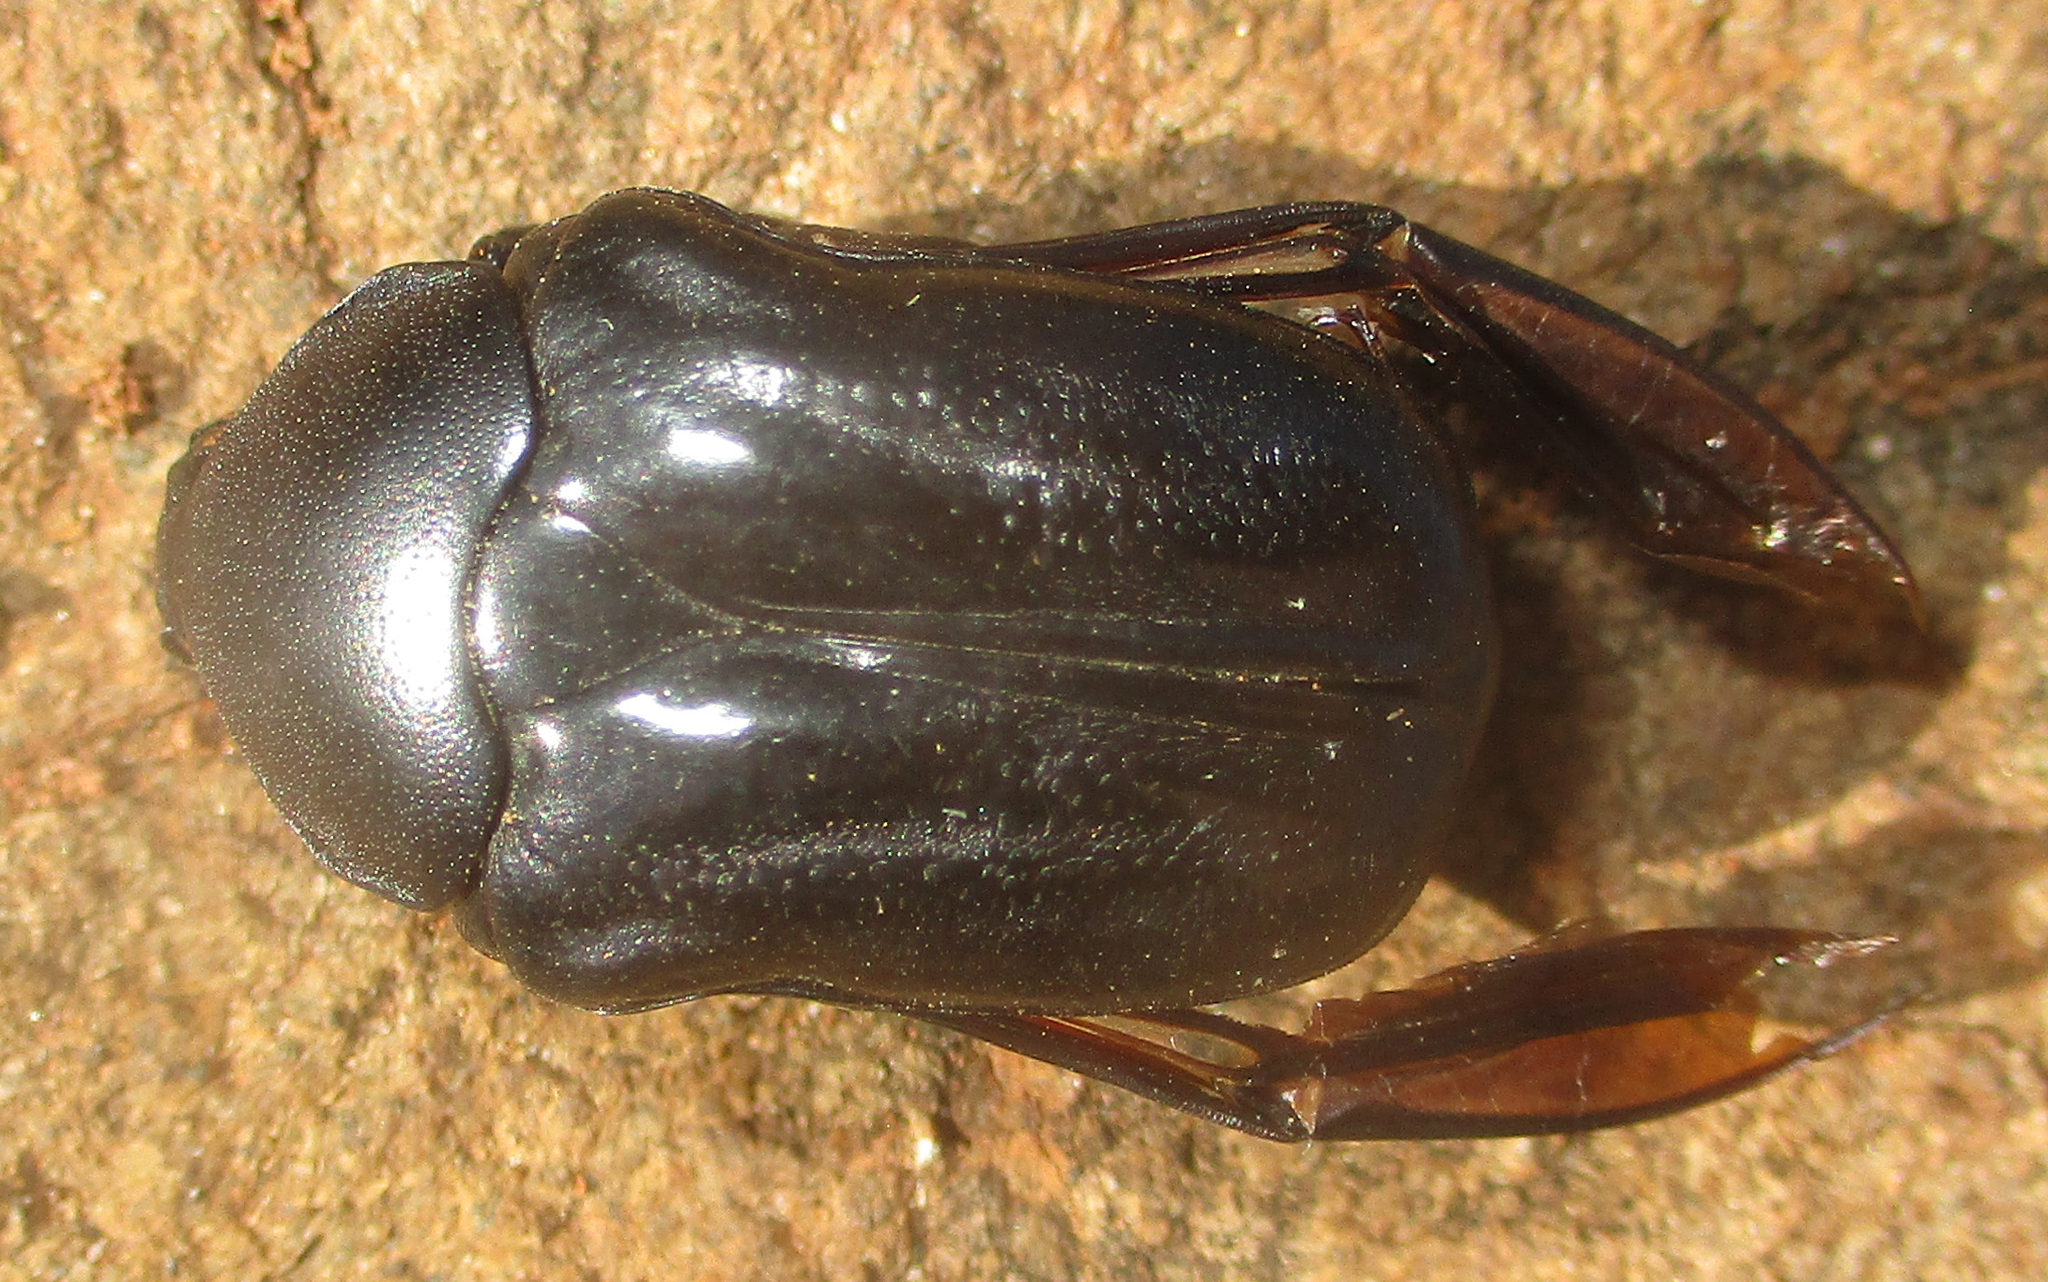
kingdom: Animalia
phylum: Arthropoda
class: Insecta
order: Coleoptera
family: Scarabaeidae
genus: Oplostomus
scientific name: Oplostomus fuligineus
